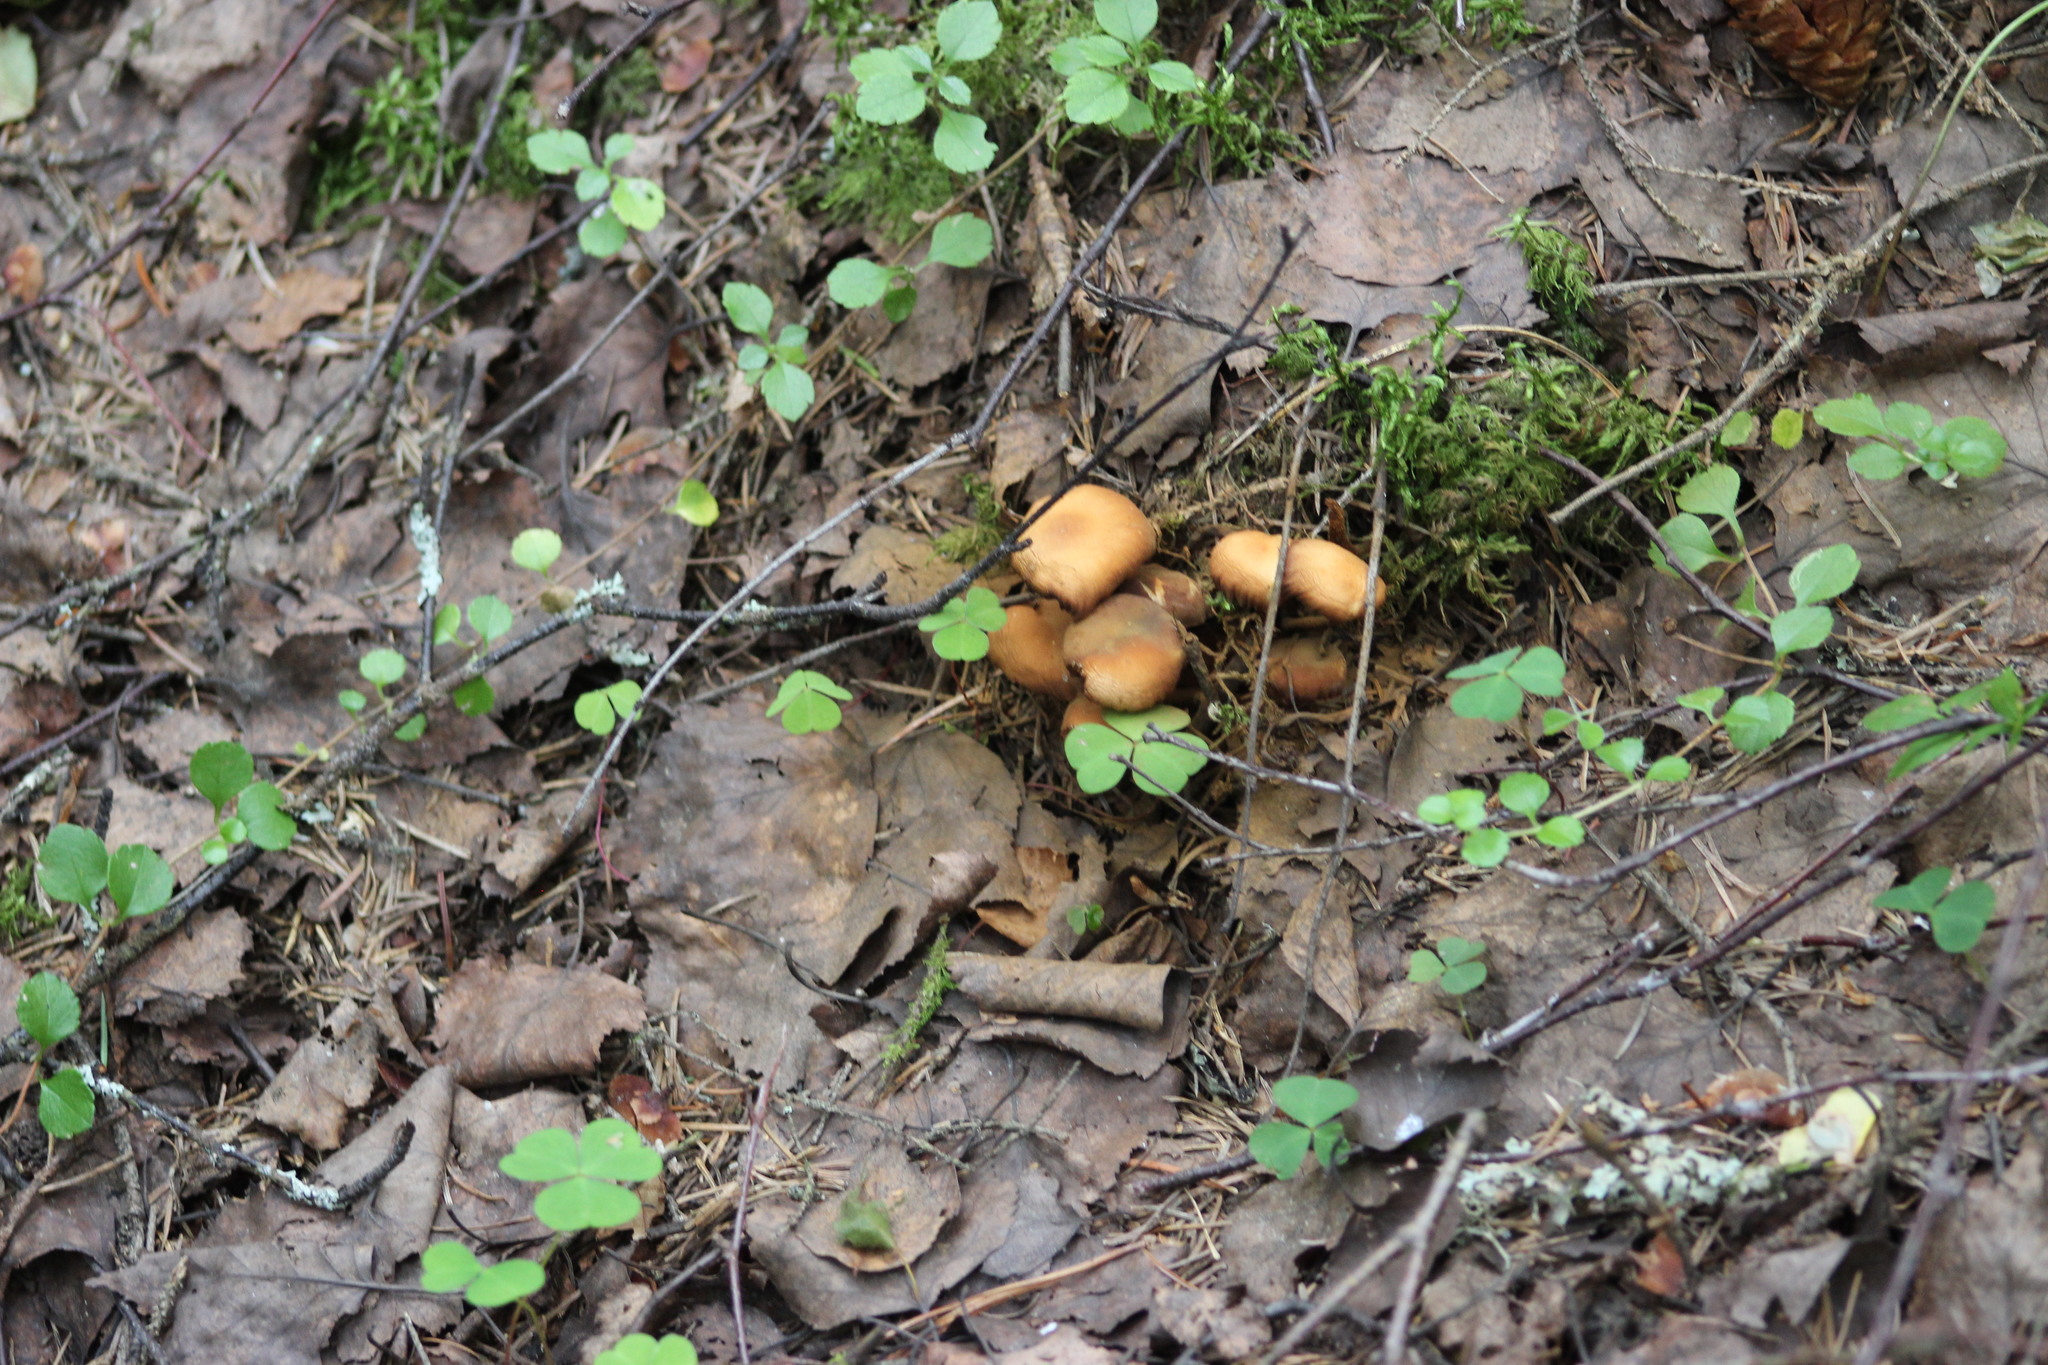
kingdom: Fungi
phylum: Basidiomycota
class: Agaricomycetes
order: Agaricales
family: Strophariaceae
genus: Kuehneromyces
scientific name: Kuehneromyces mutabilis
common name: Sheathed woodtuft
